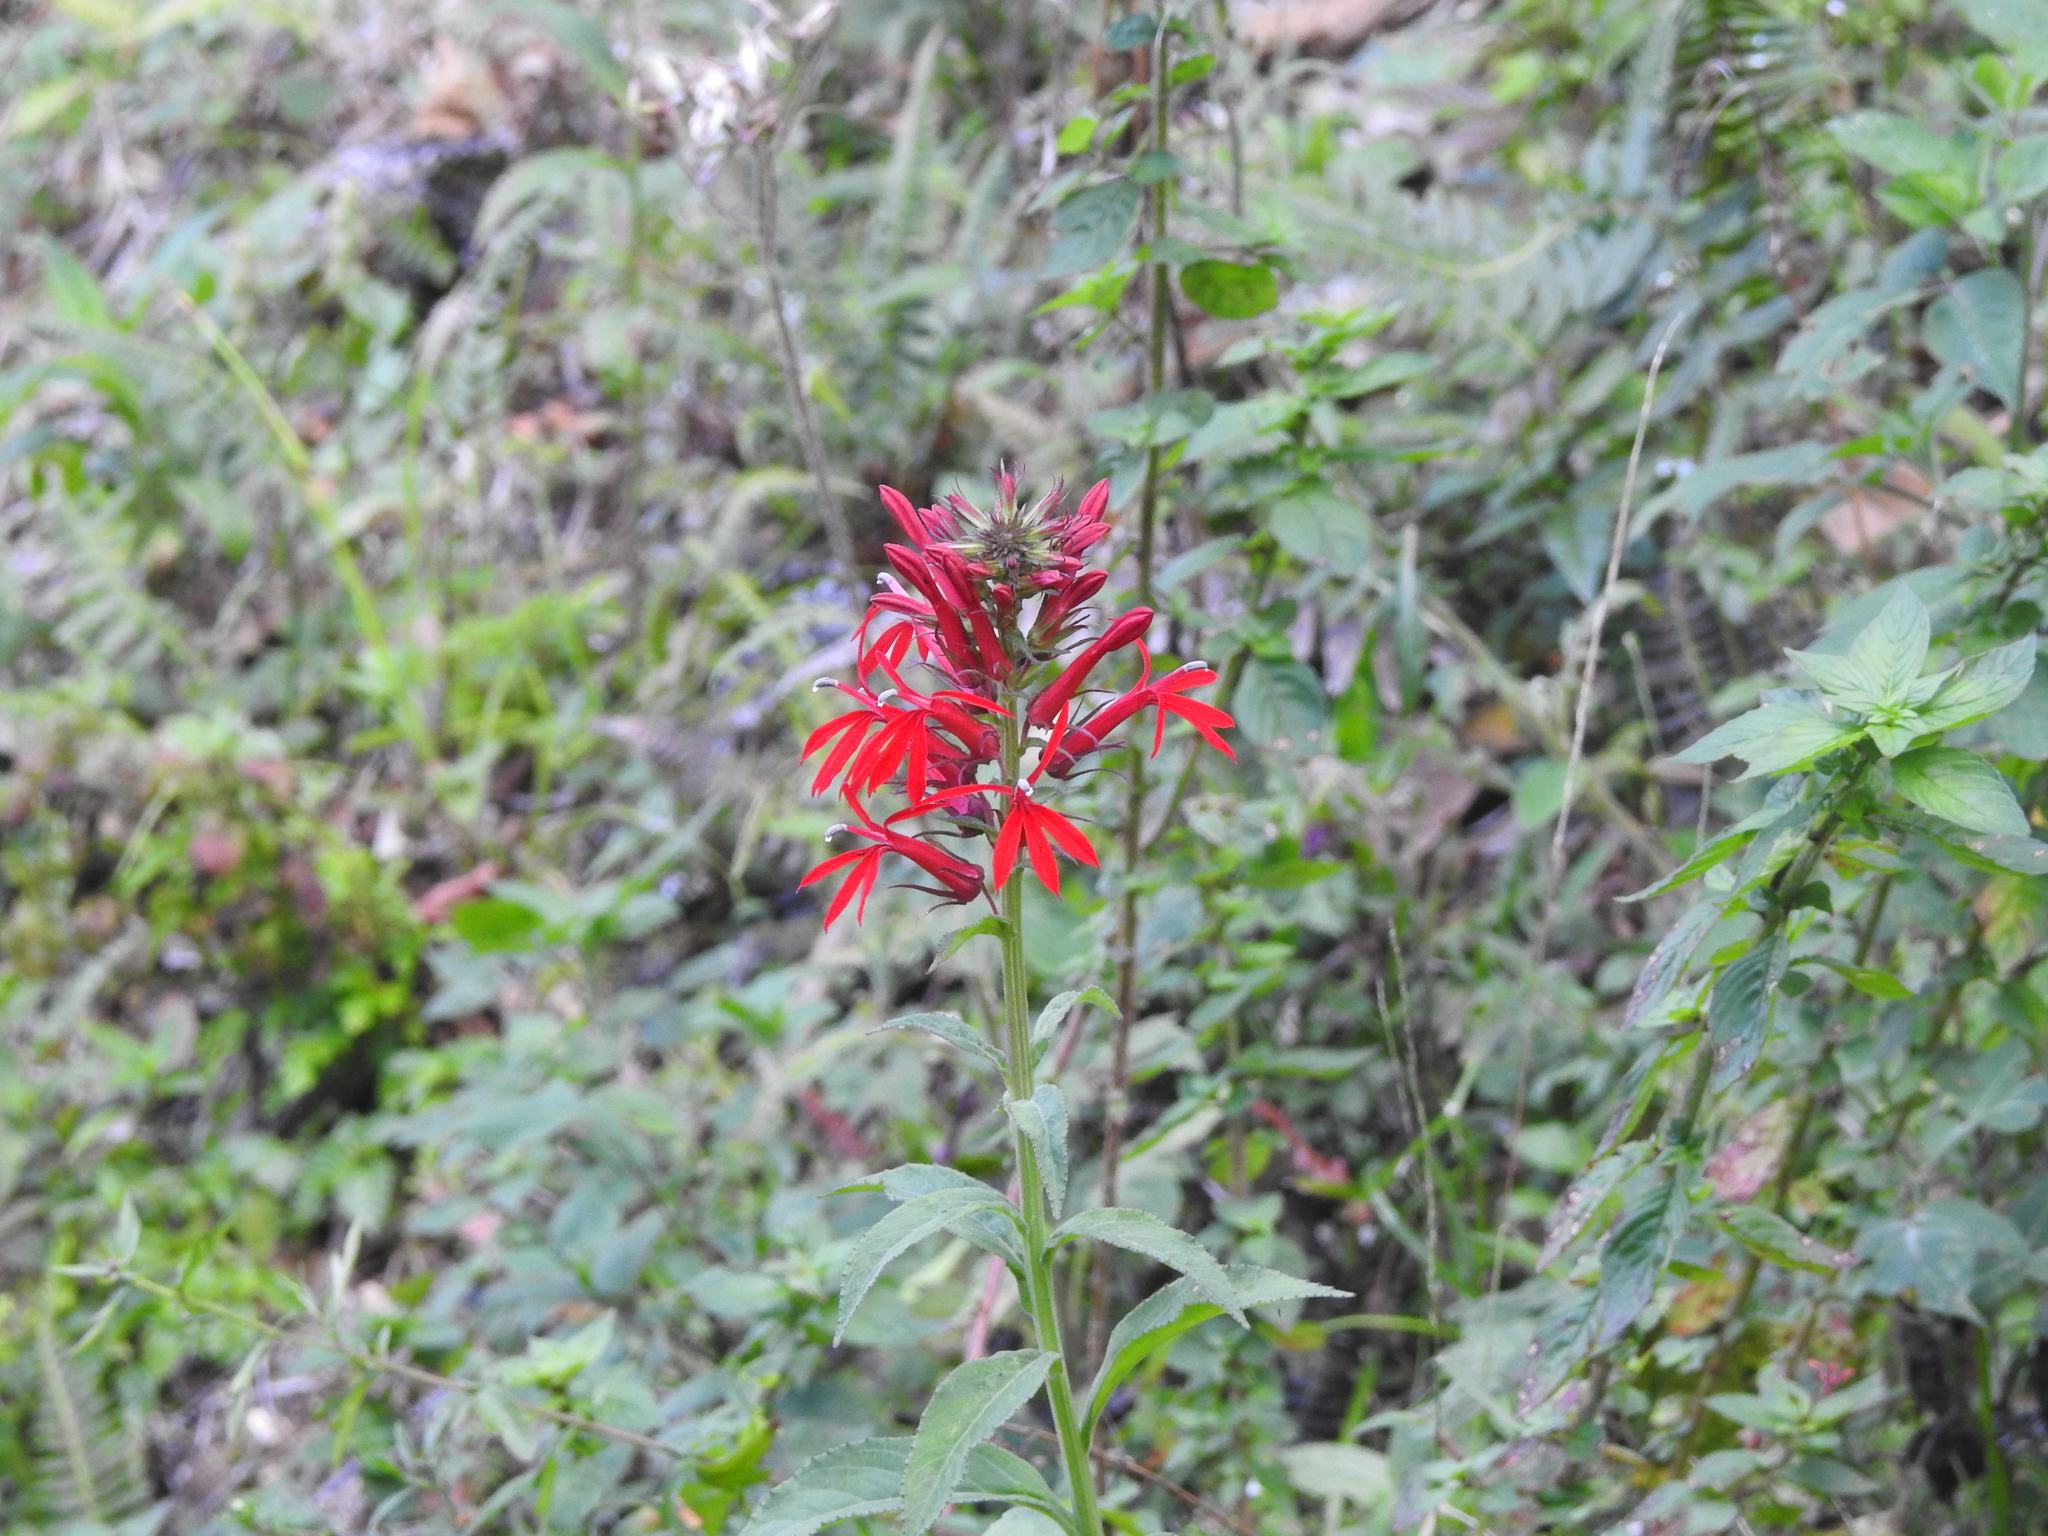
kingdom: Plantae
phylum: Tracheophyta
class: Magnoliopsida
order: Asterales
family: Campanulaceae
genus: Lobelia
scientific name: Lobelia cardinalis
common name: Cardinal flower
